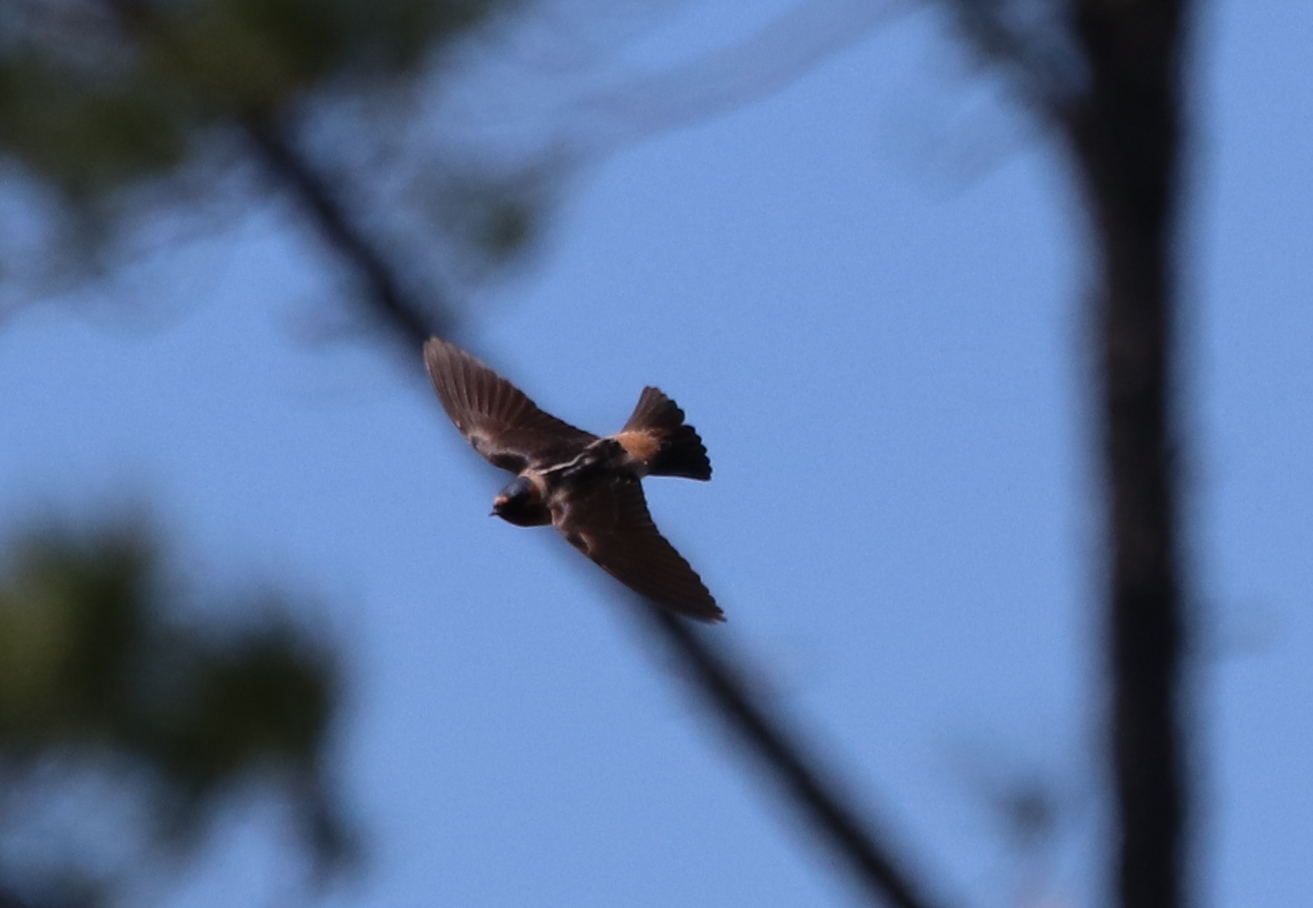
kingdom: Animalia
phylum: Chordata
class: Aves
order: Passeriformes
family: Hirundinidae
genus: Petrochelidon
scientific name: Petrochelidon pyrrhonota
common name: American cliff swallow
